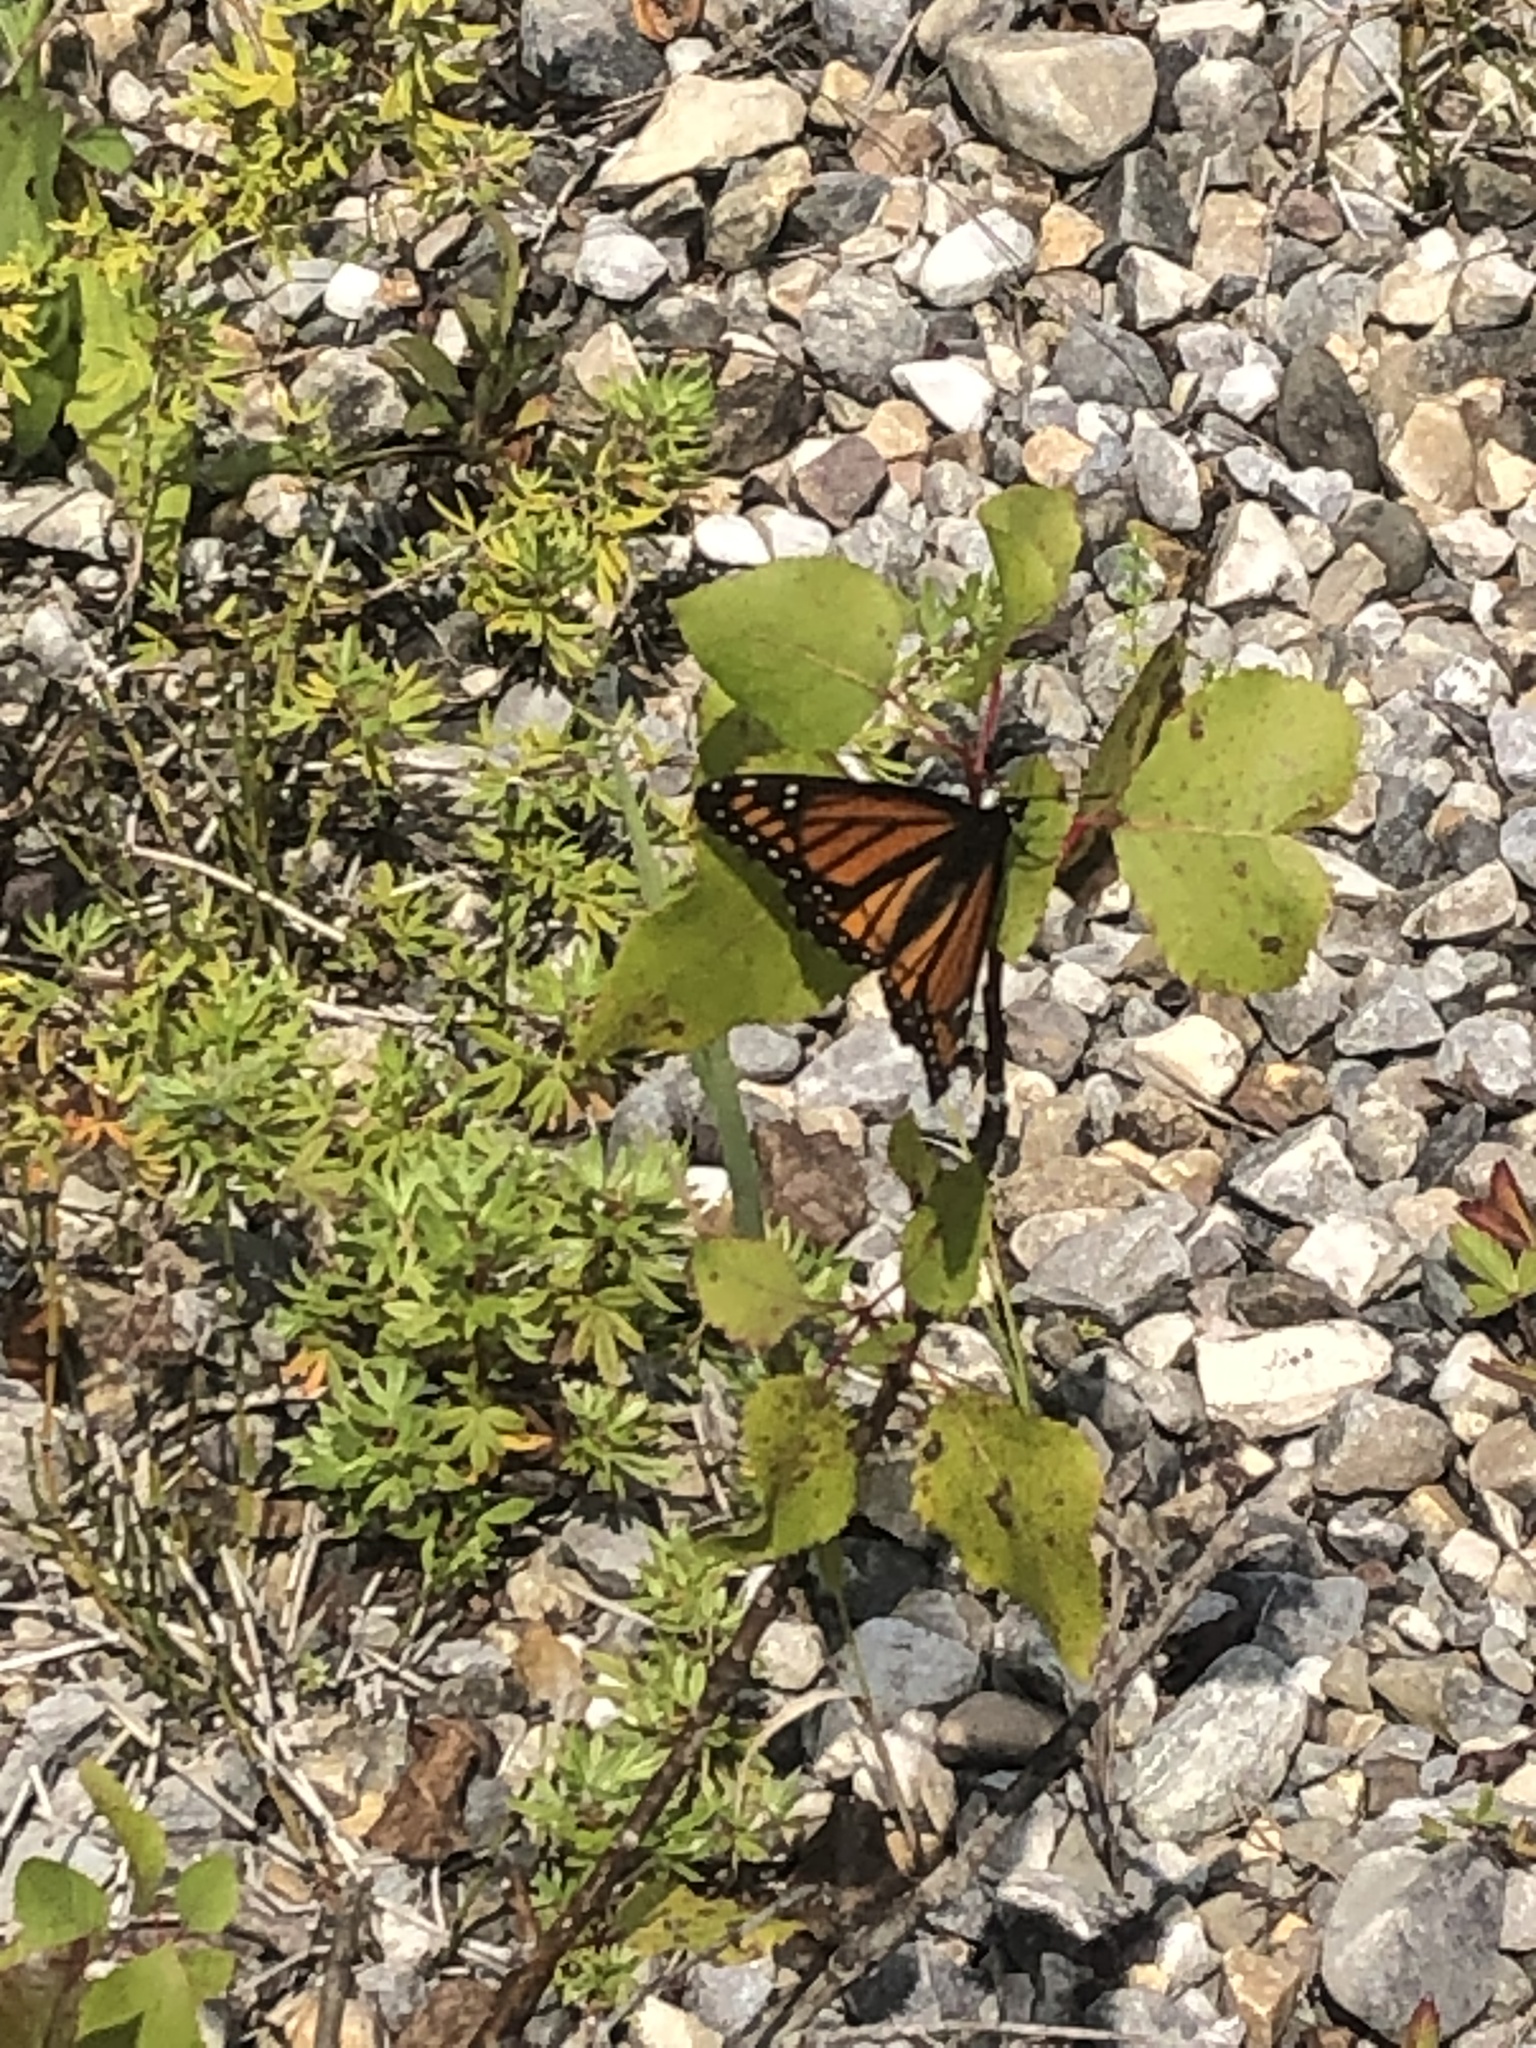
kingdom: Animalia
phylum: Arthropoda
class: Insecta
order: Lepidoptera
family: Nymphalidae
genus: Limenitis
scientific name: Limenitis archippus
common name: Viceroy
